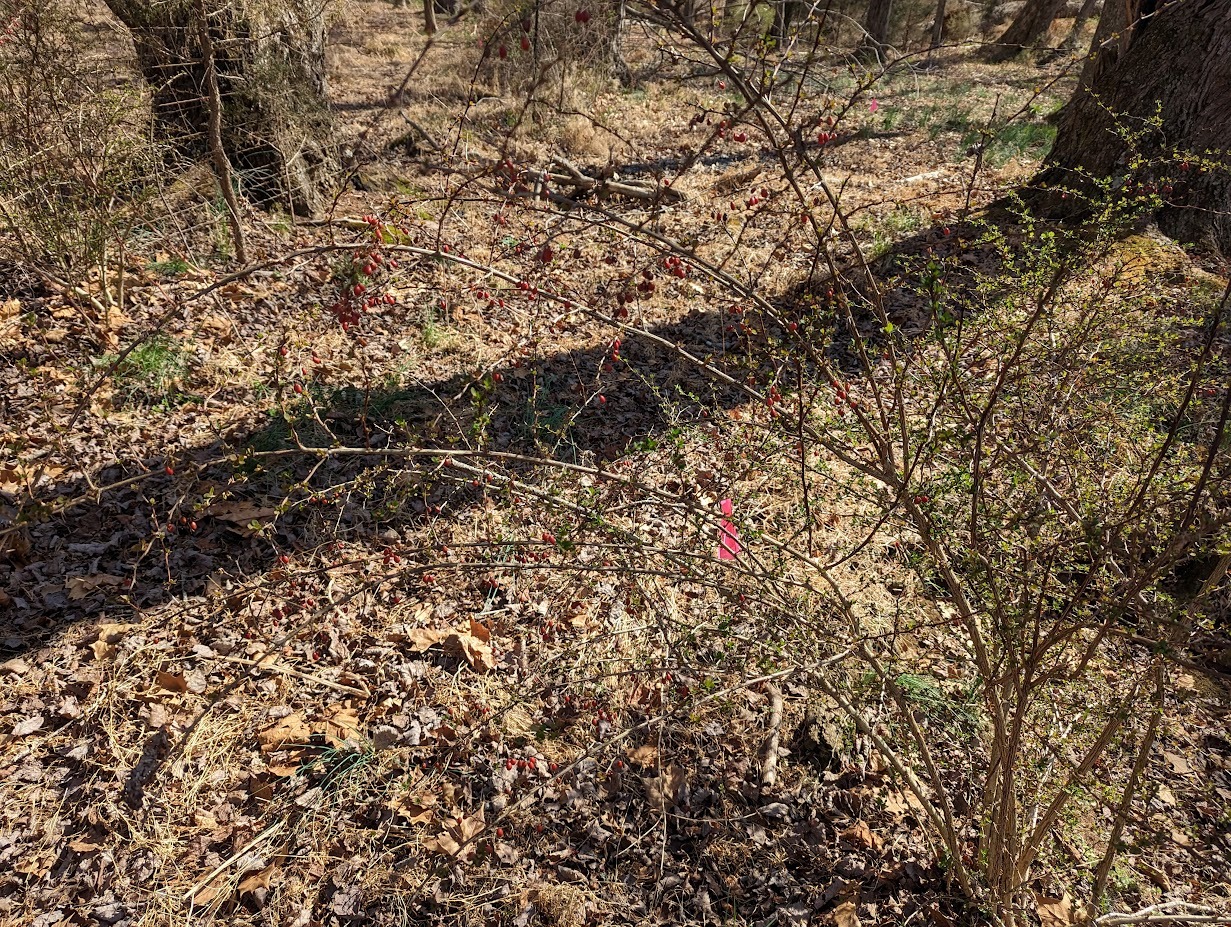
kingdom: Plantae
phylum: Tracheophyta
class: Magnoliopsida
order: Ranunculales
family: Berberidaceae
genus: Berberis
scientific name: Berberis thunbergii
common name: Japanese barberry
